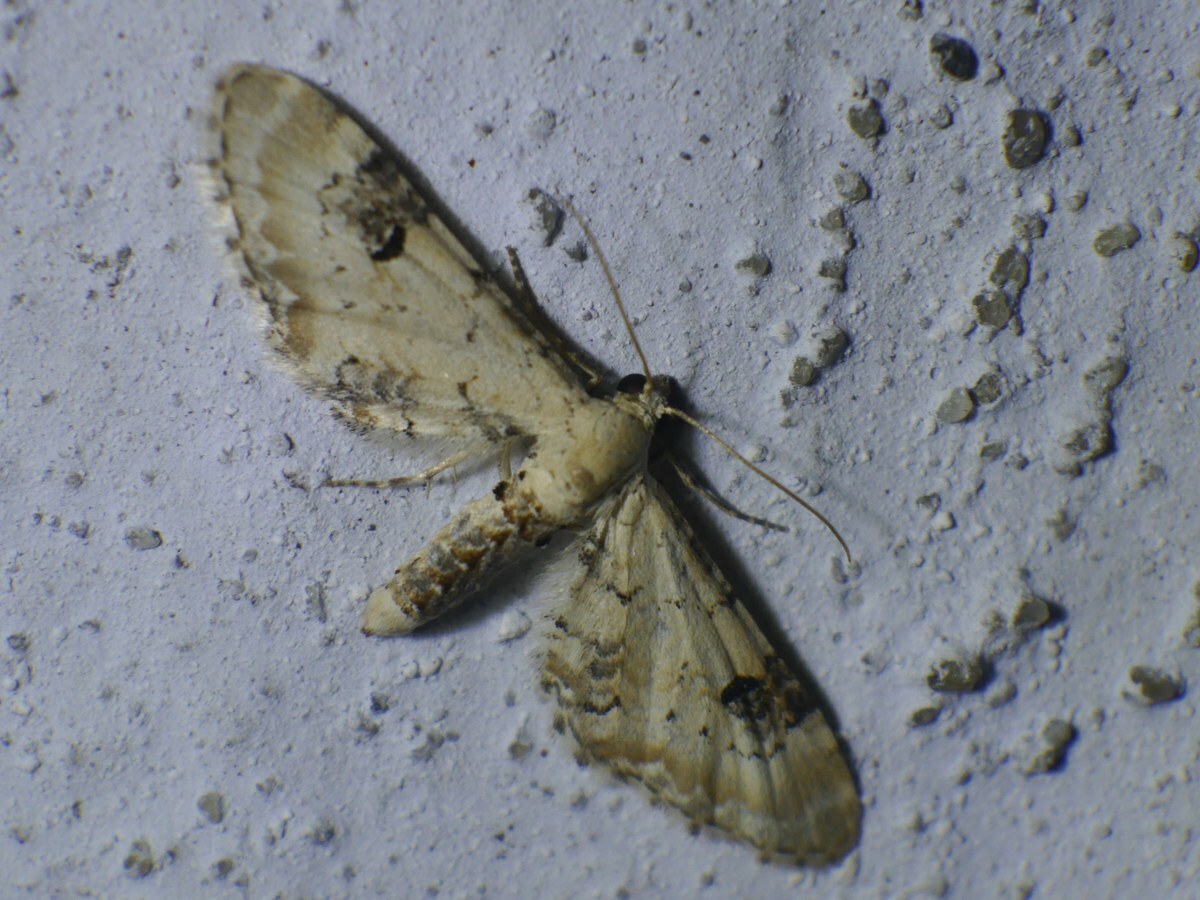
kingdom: Animalia
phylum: Arthropoda
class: Insecta
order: Lepidoptera
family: Geometridae
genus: Eupithecia
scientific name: Eupithecia centaureata
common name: Lime-speck pug
